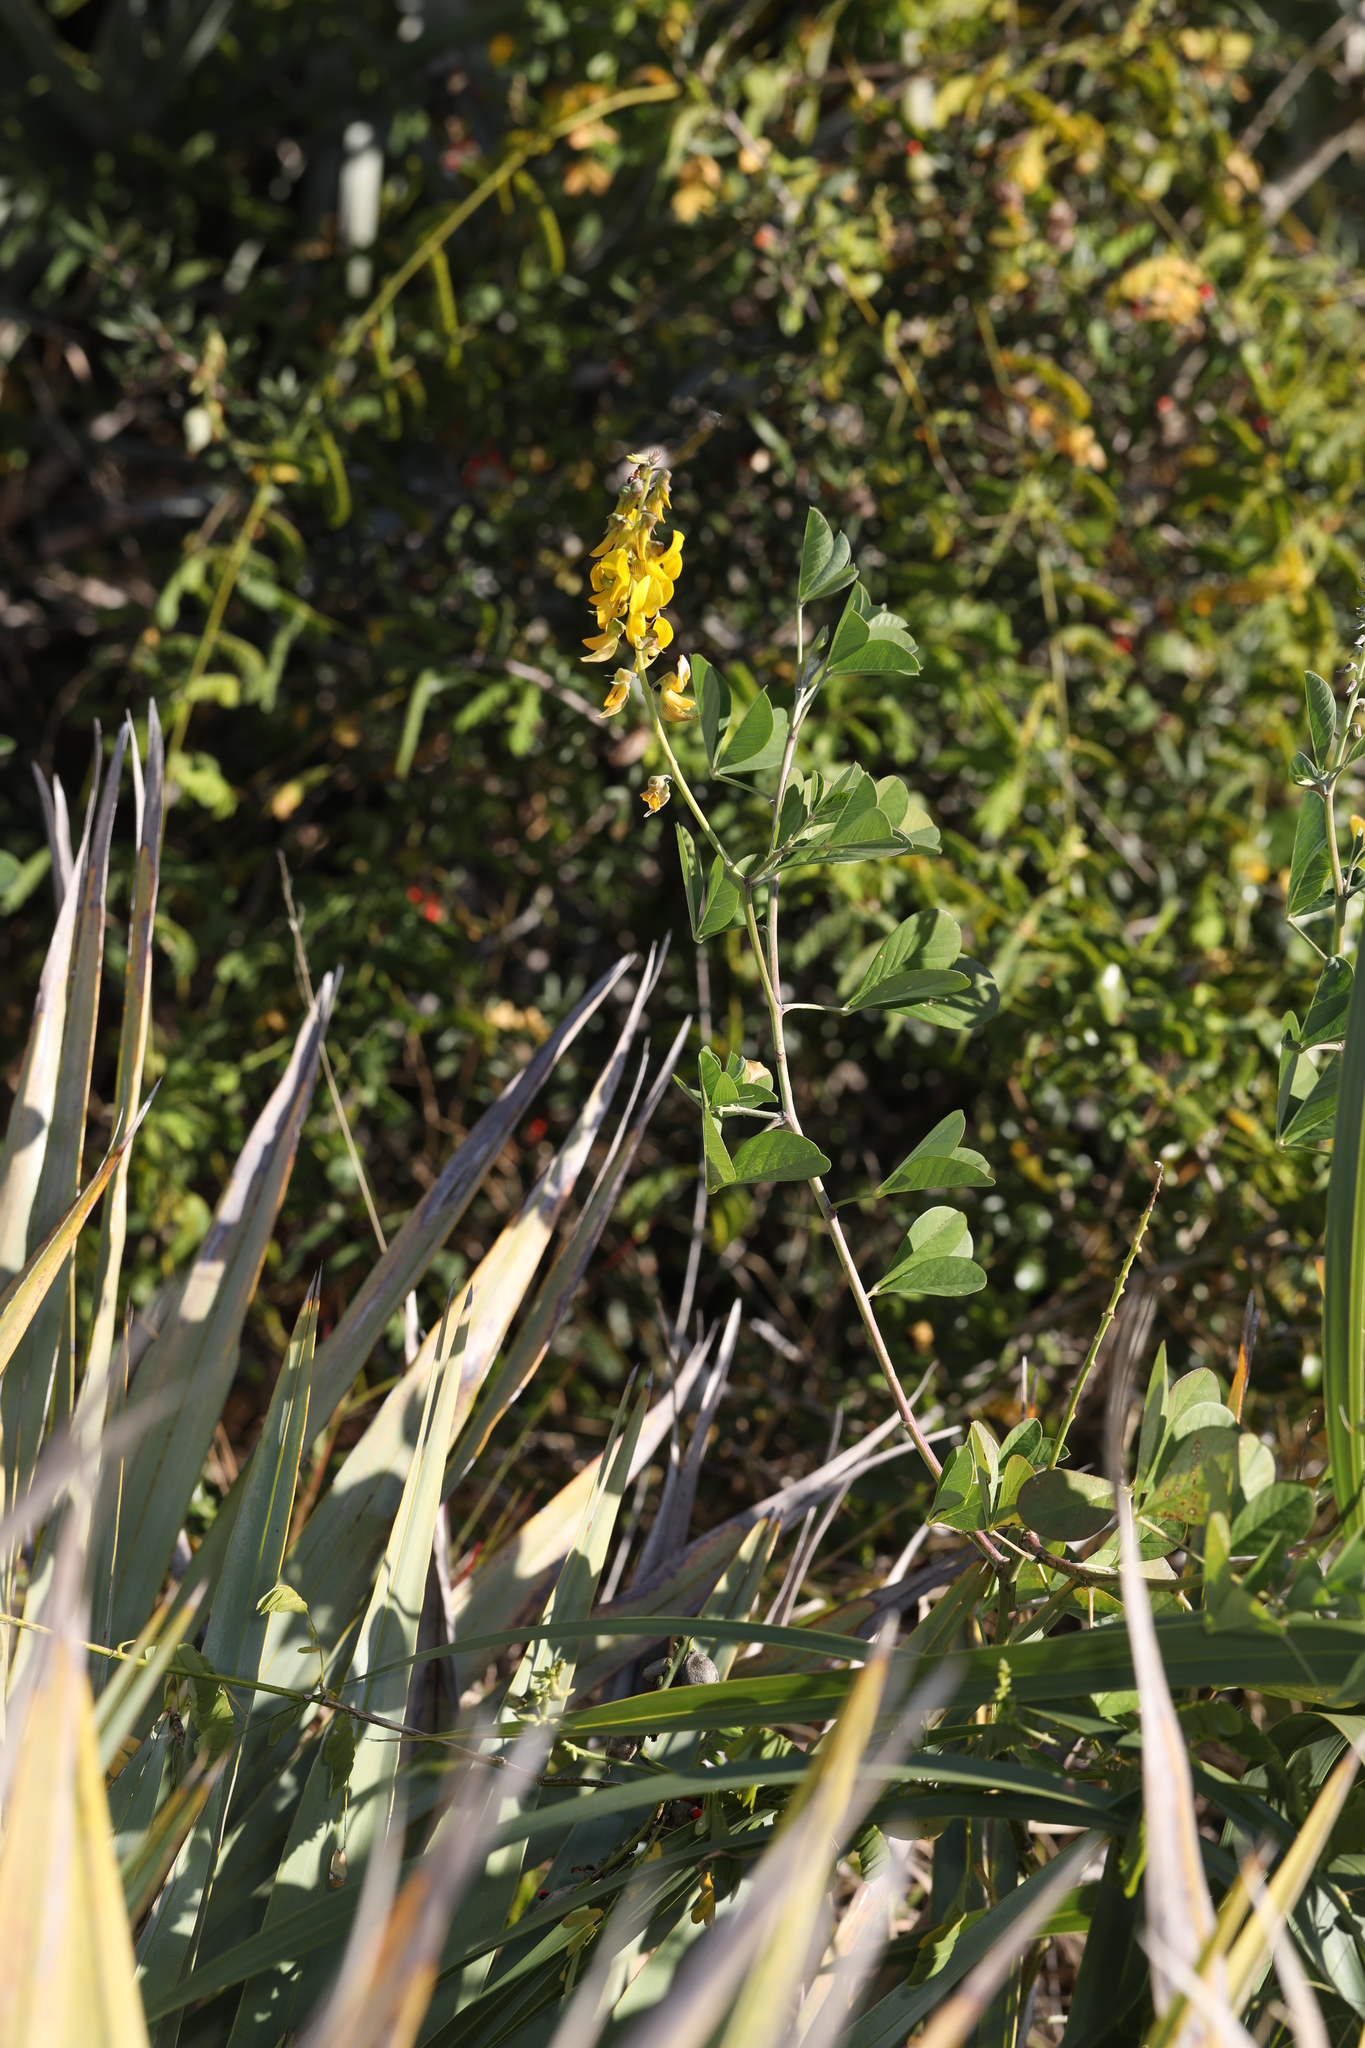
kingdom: Plantae
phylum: Tracheophyta
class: Magnoliopsida
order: Fabales
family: Fabaceae
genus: Crotalaria
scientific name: Crotalaria pallida
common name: Smooth rattlebox
